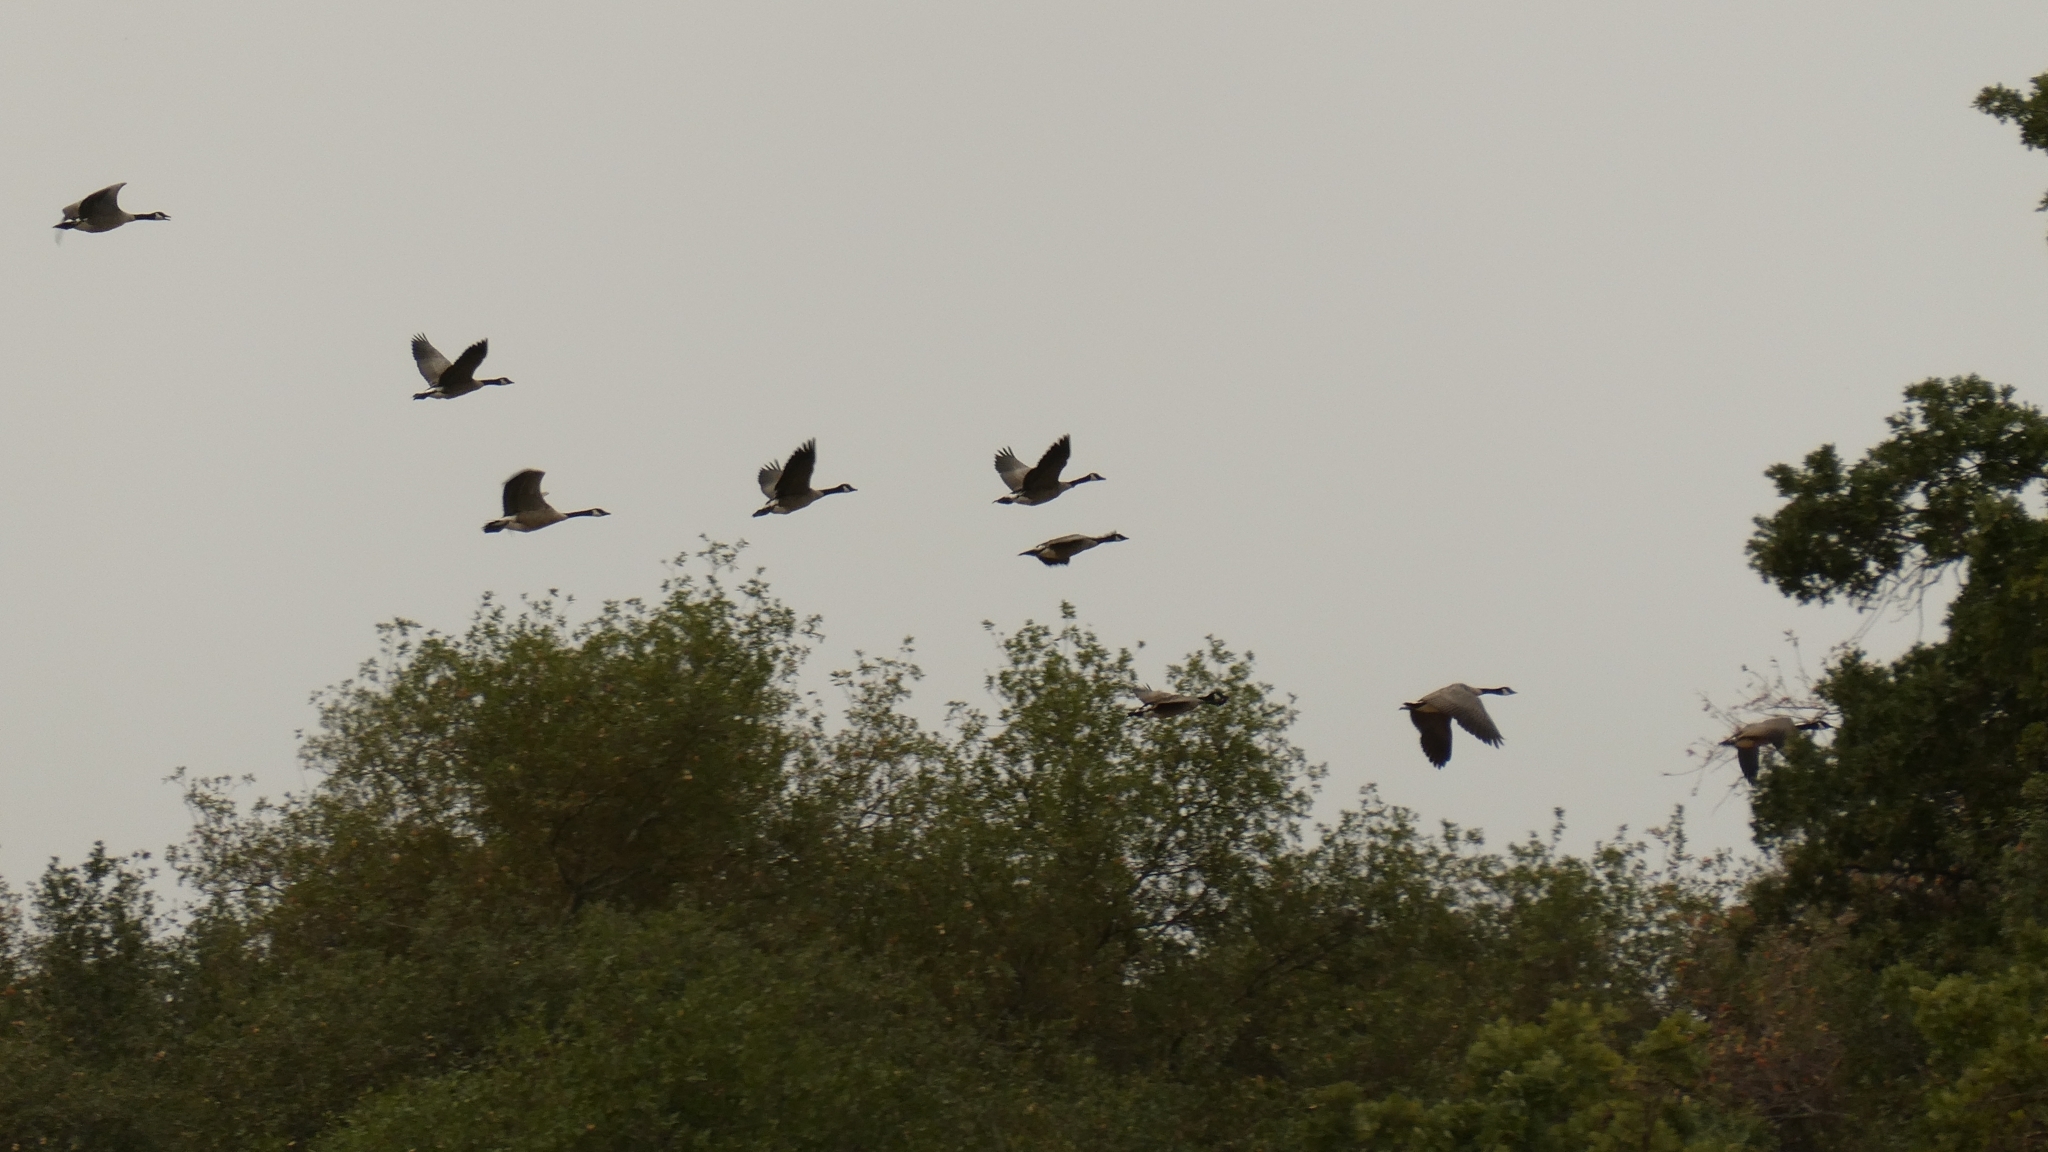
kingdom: Animalia
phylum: Chordata
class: Aves
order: Anseriformes
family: Anatidae
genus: Branta
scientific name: Branta canadensis
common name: Canada goose
